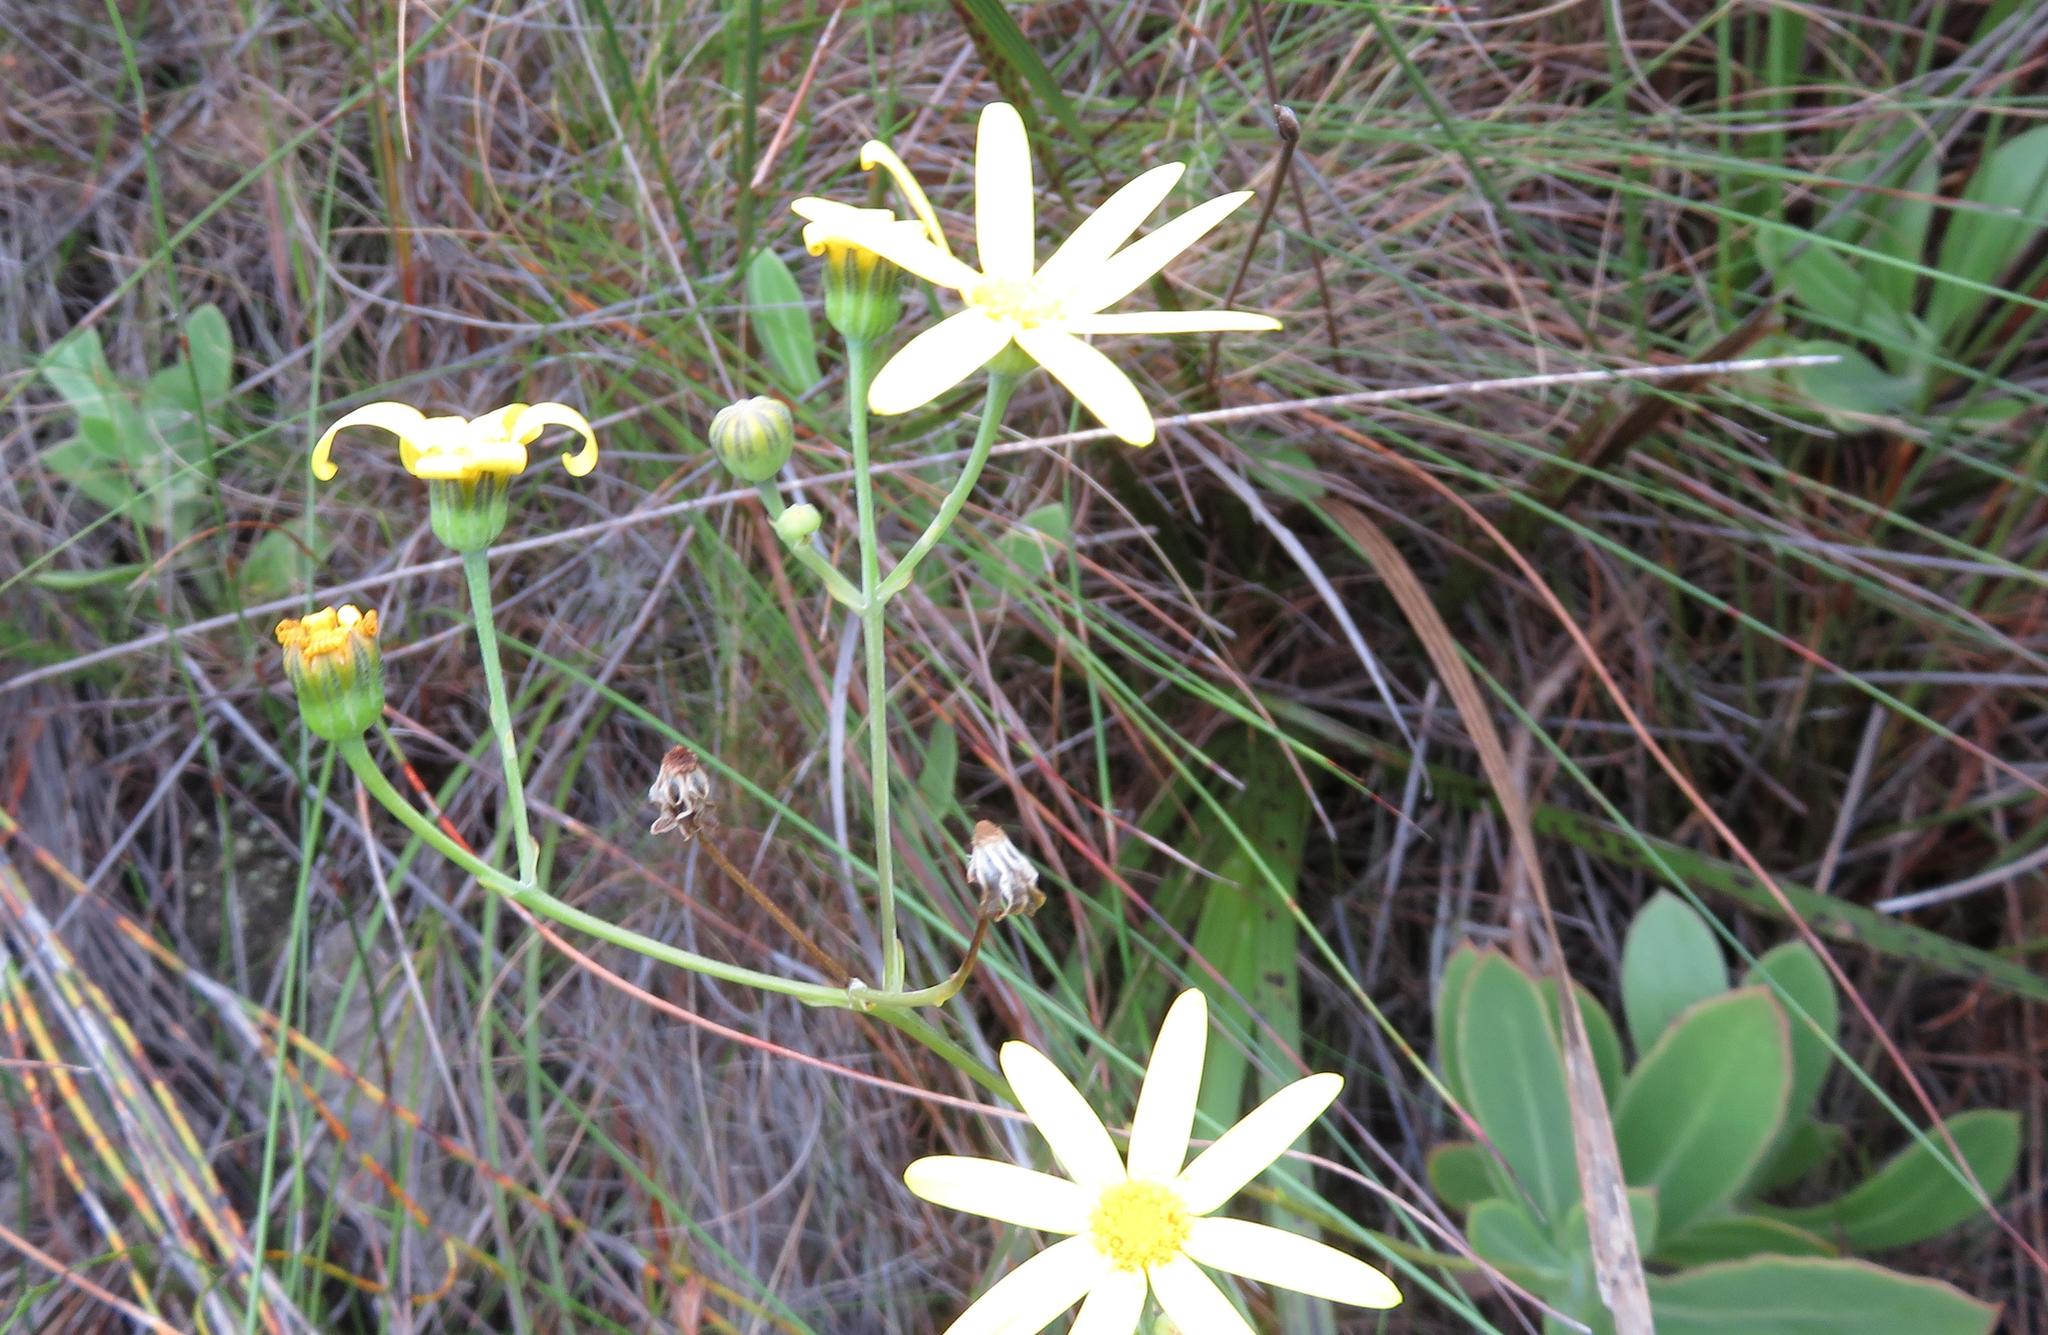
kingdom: Plantae
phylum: Tracheophyta
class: Magnoliopsida
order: Asterales
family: Asteraceae
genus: Othonna
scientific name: Othonna quinquedentata
